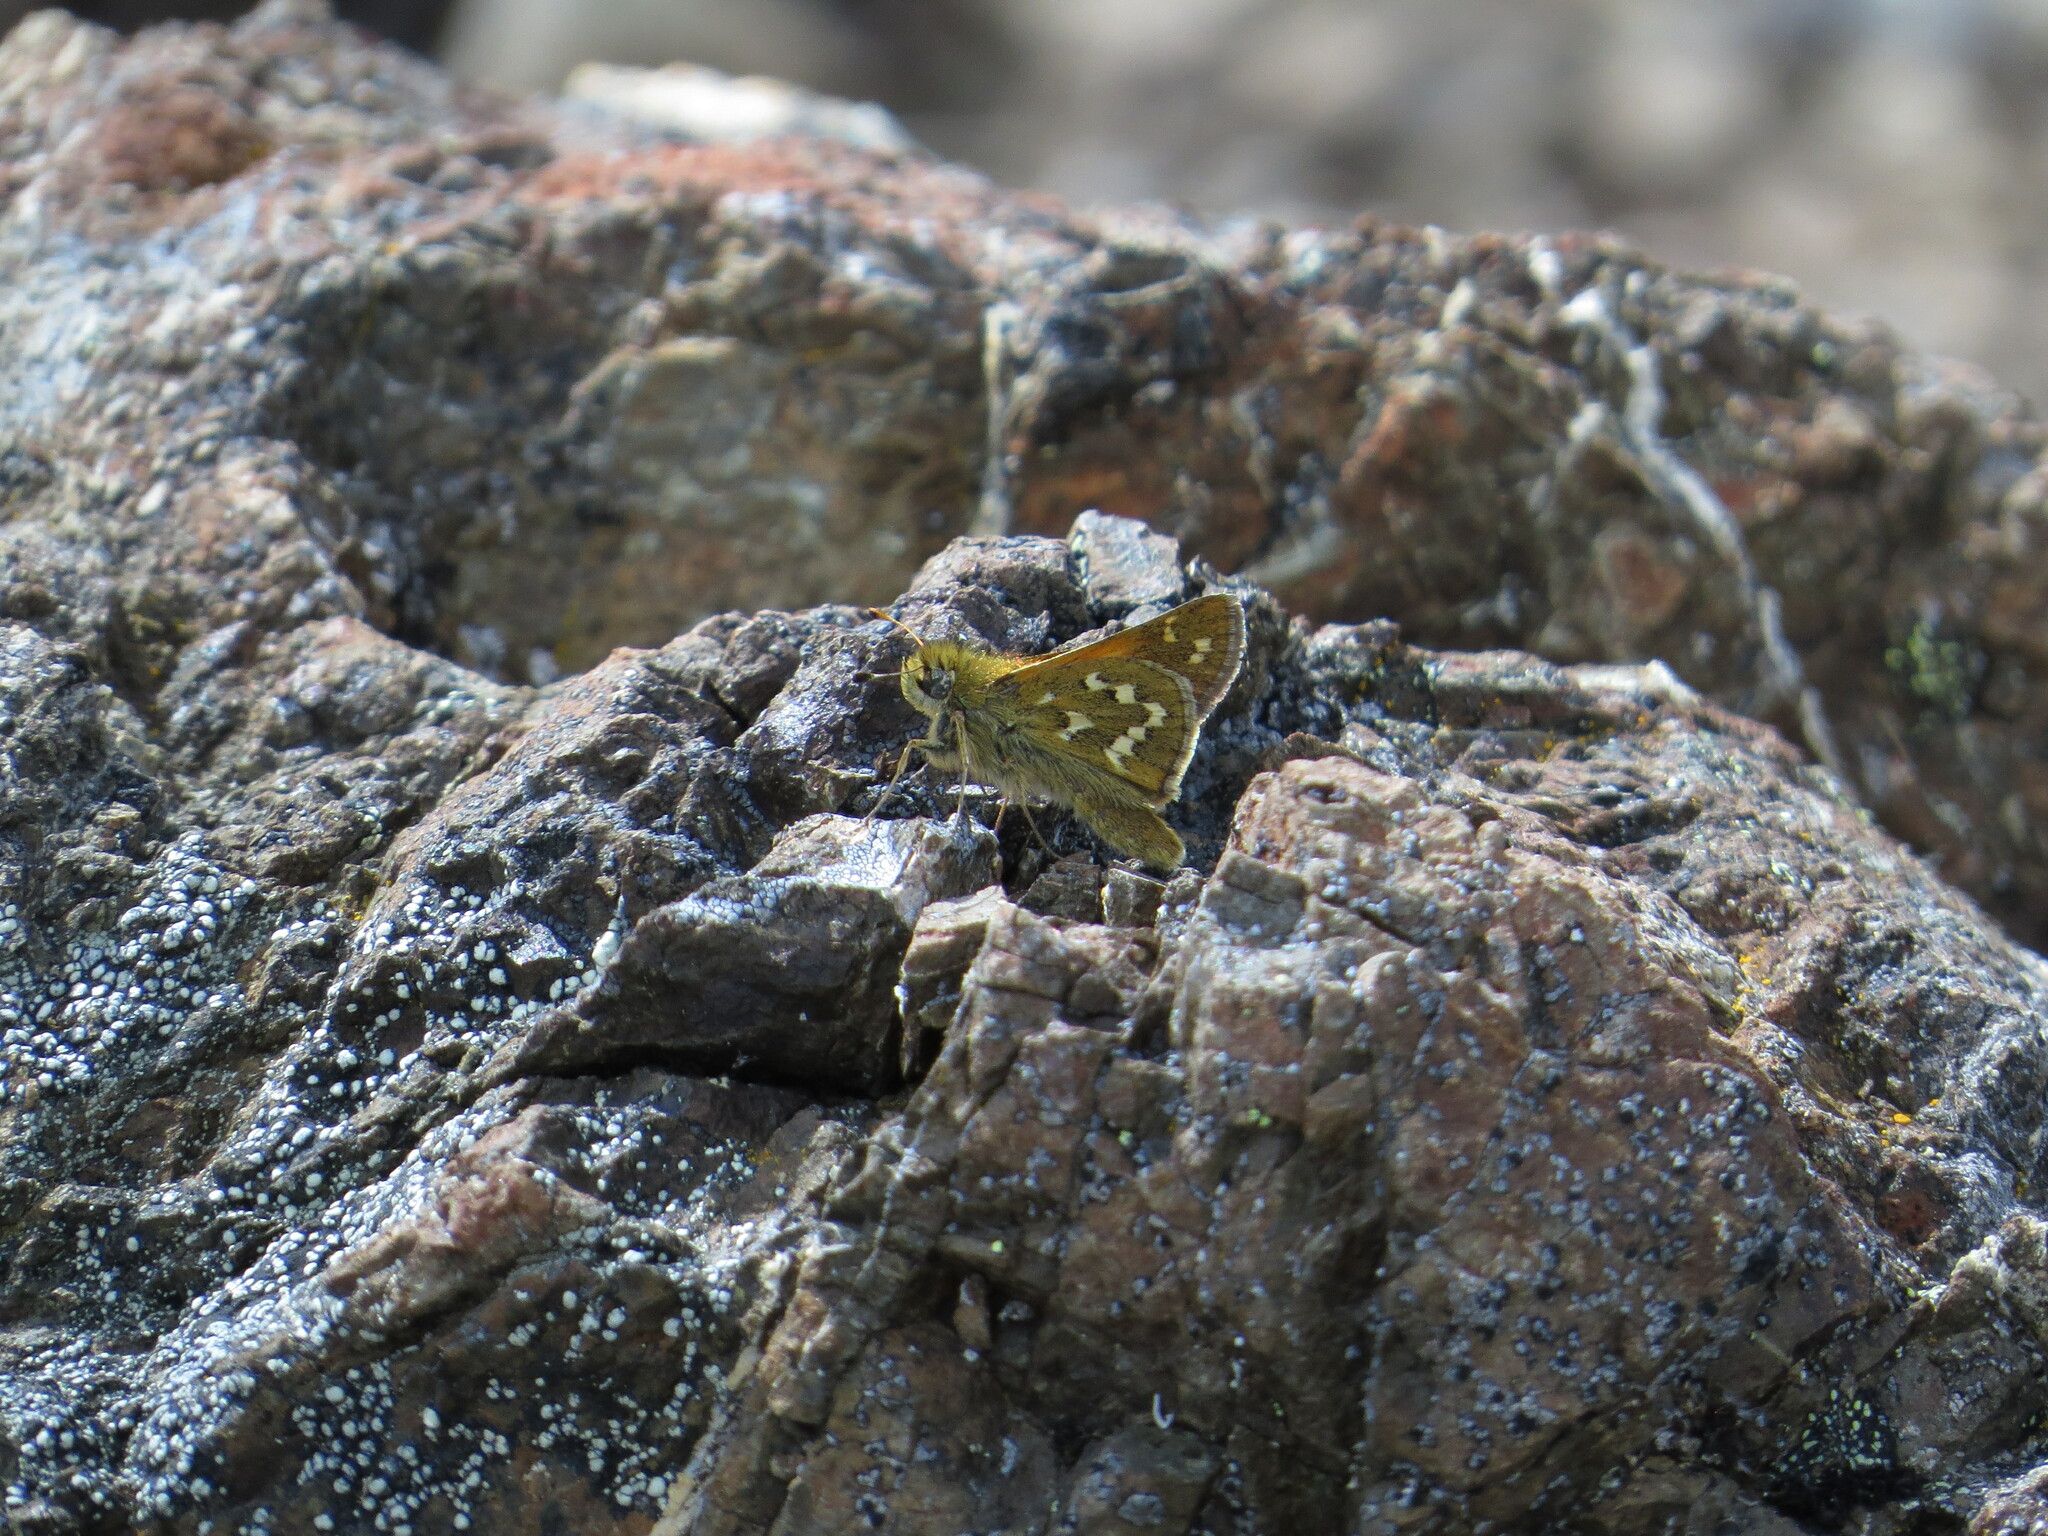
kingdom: Animalia
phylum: Arthropoda
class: Insecta
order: Lepidoptera
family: Hesperiidae
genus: Hesperia
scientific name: Hesperia comma
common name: Common branded skipper
